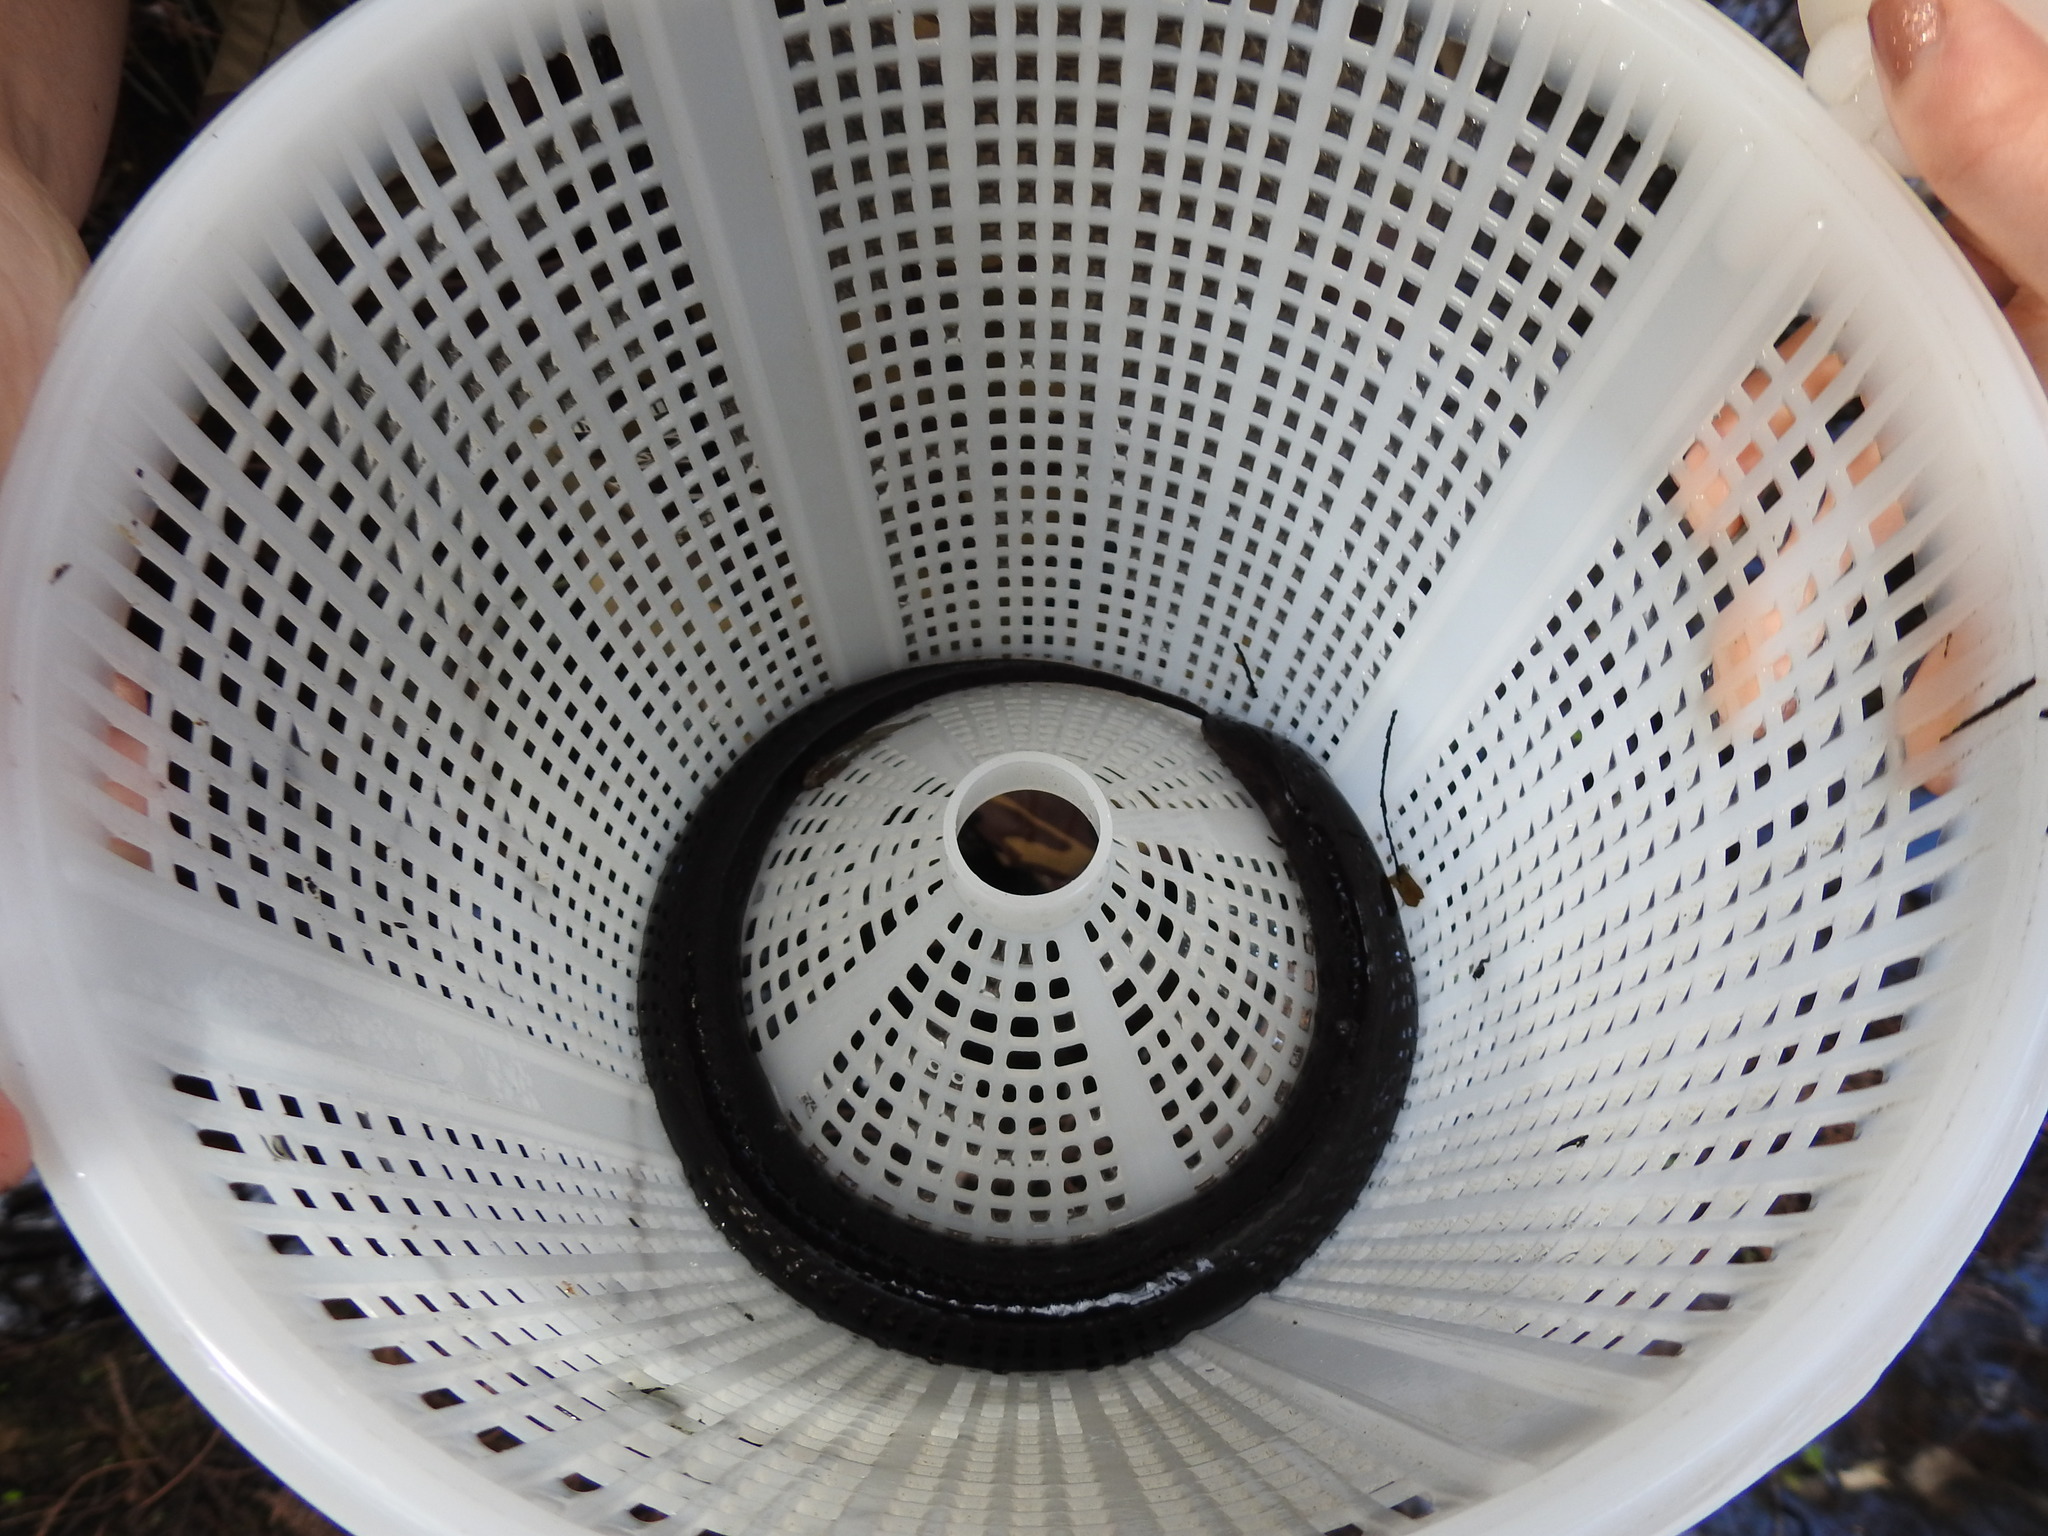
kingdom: Animalia
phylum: Chordata
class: Amphibia
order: Caudata
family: Amphiumidae
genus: Amphiuma
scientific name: Amphiuma means
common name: Two-toed amphiuma
